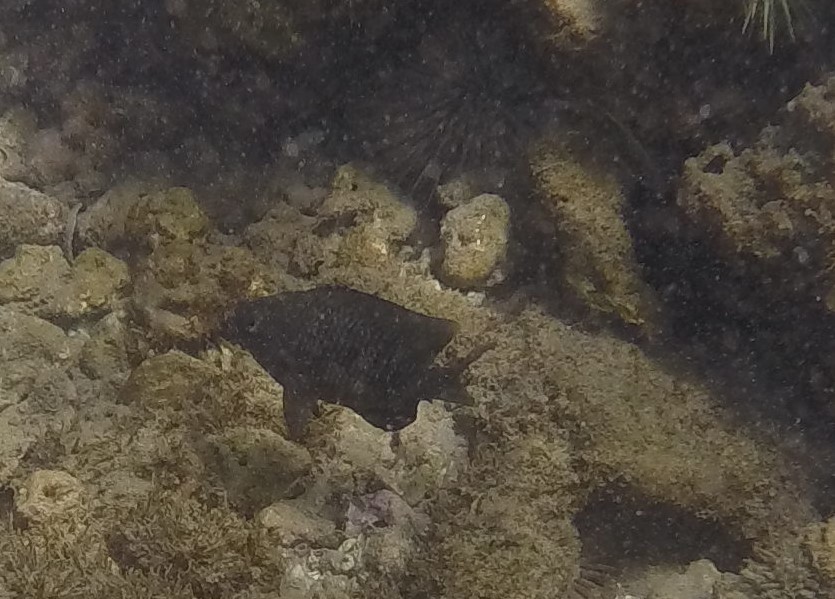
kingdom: Animalia
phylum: Chordata
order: Perciformes
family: Pomacentridae
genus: Stegastes
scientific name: Stegastes fasciolatus
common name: Pacific gregory
